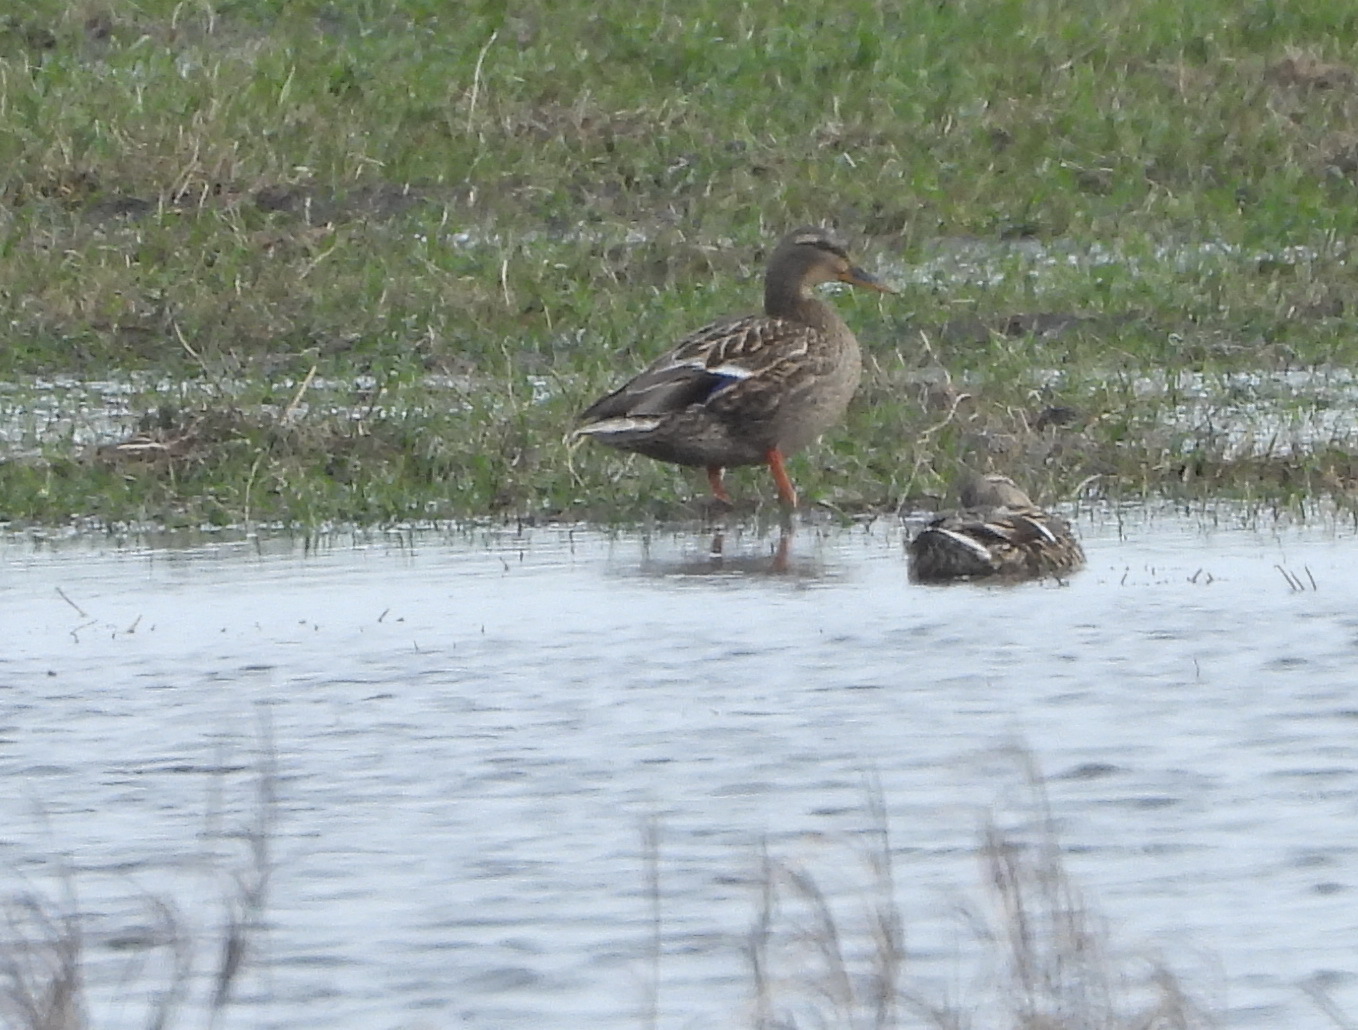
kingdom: Animalia
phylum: Chordata
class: Aves
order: Anseriformes
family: Anatidae
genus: Anas
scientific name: Anas platyrhynchos
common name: Mallard
